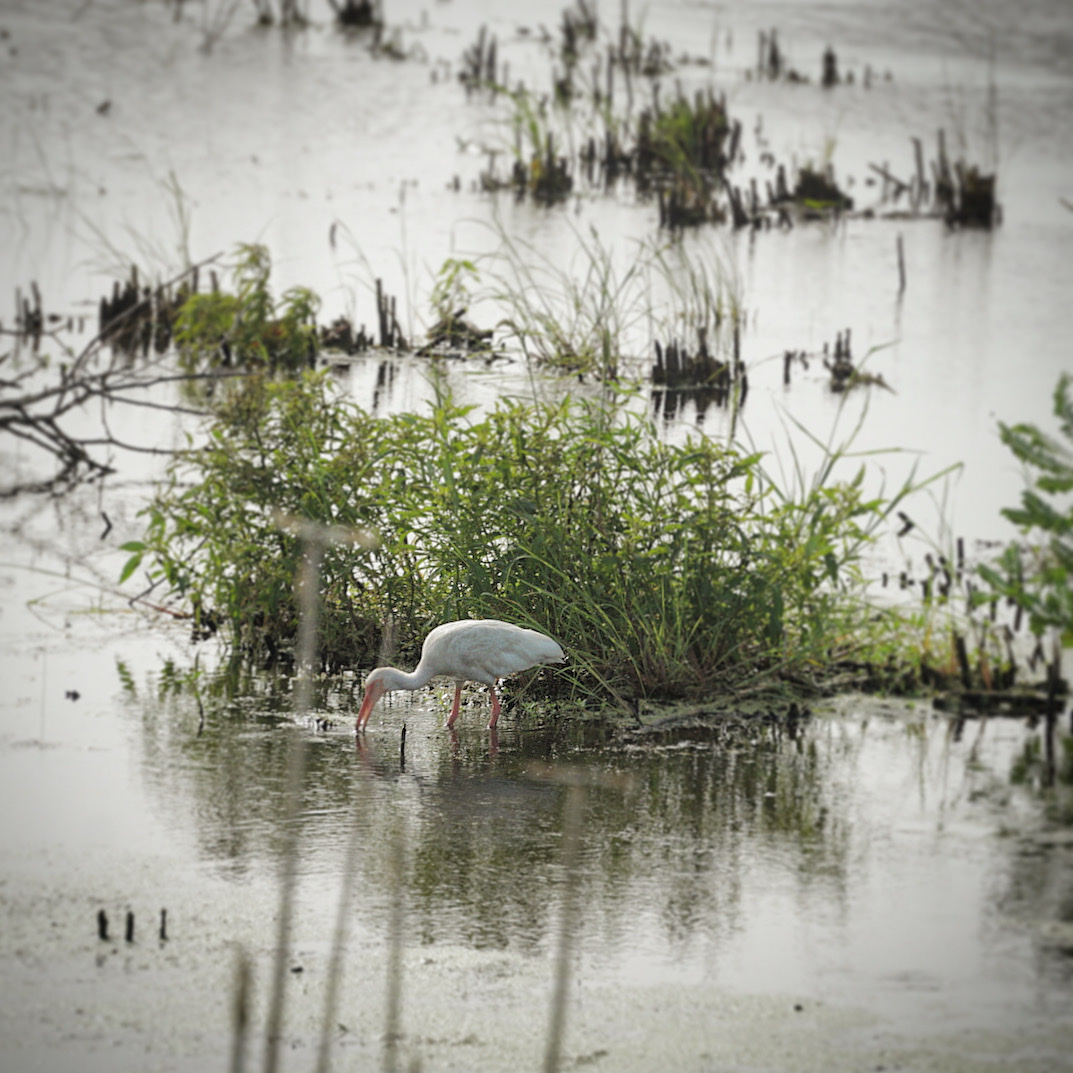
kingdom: Animalia
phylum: Chordata
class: Aves
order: Pelecaniformes
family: Threskiornithidae
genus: Eudocimus
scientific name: Eudocimus albus
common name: White ibis
